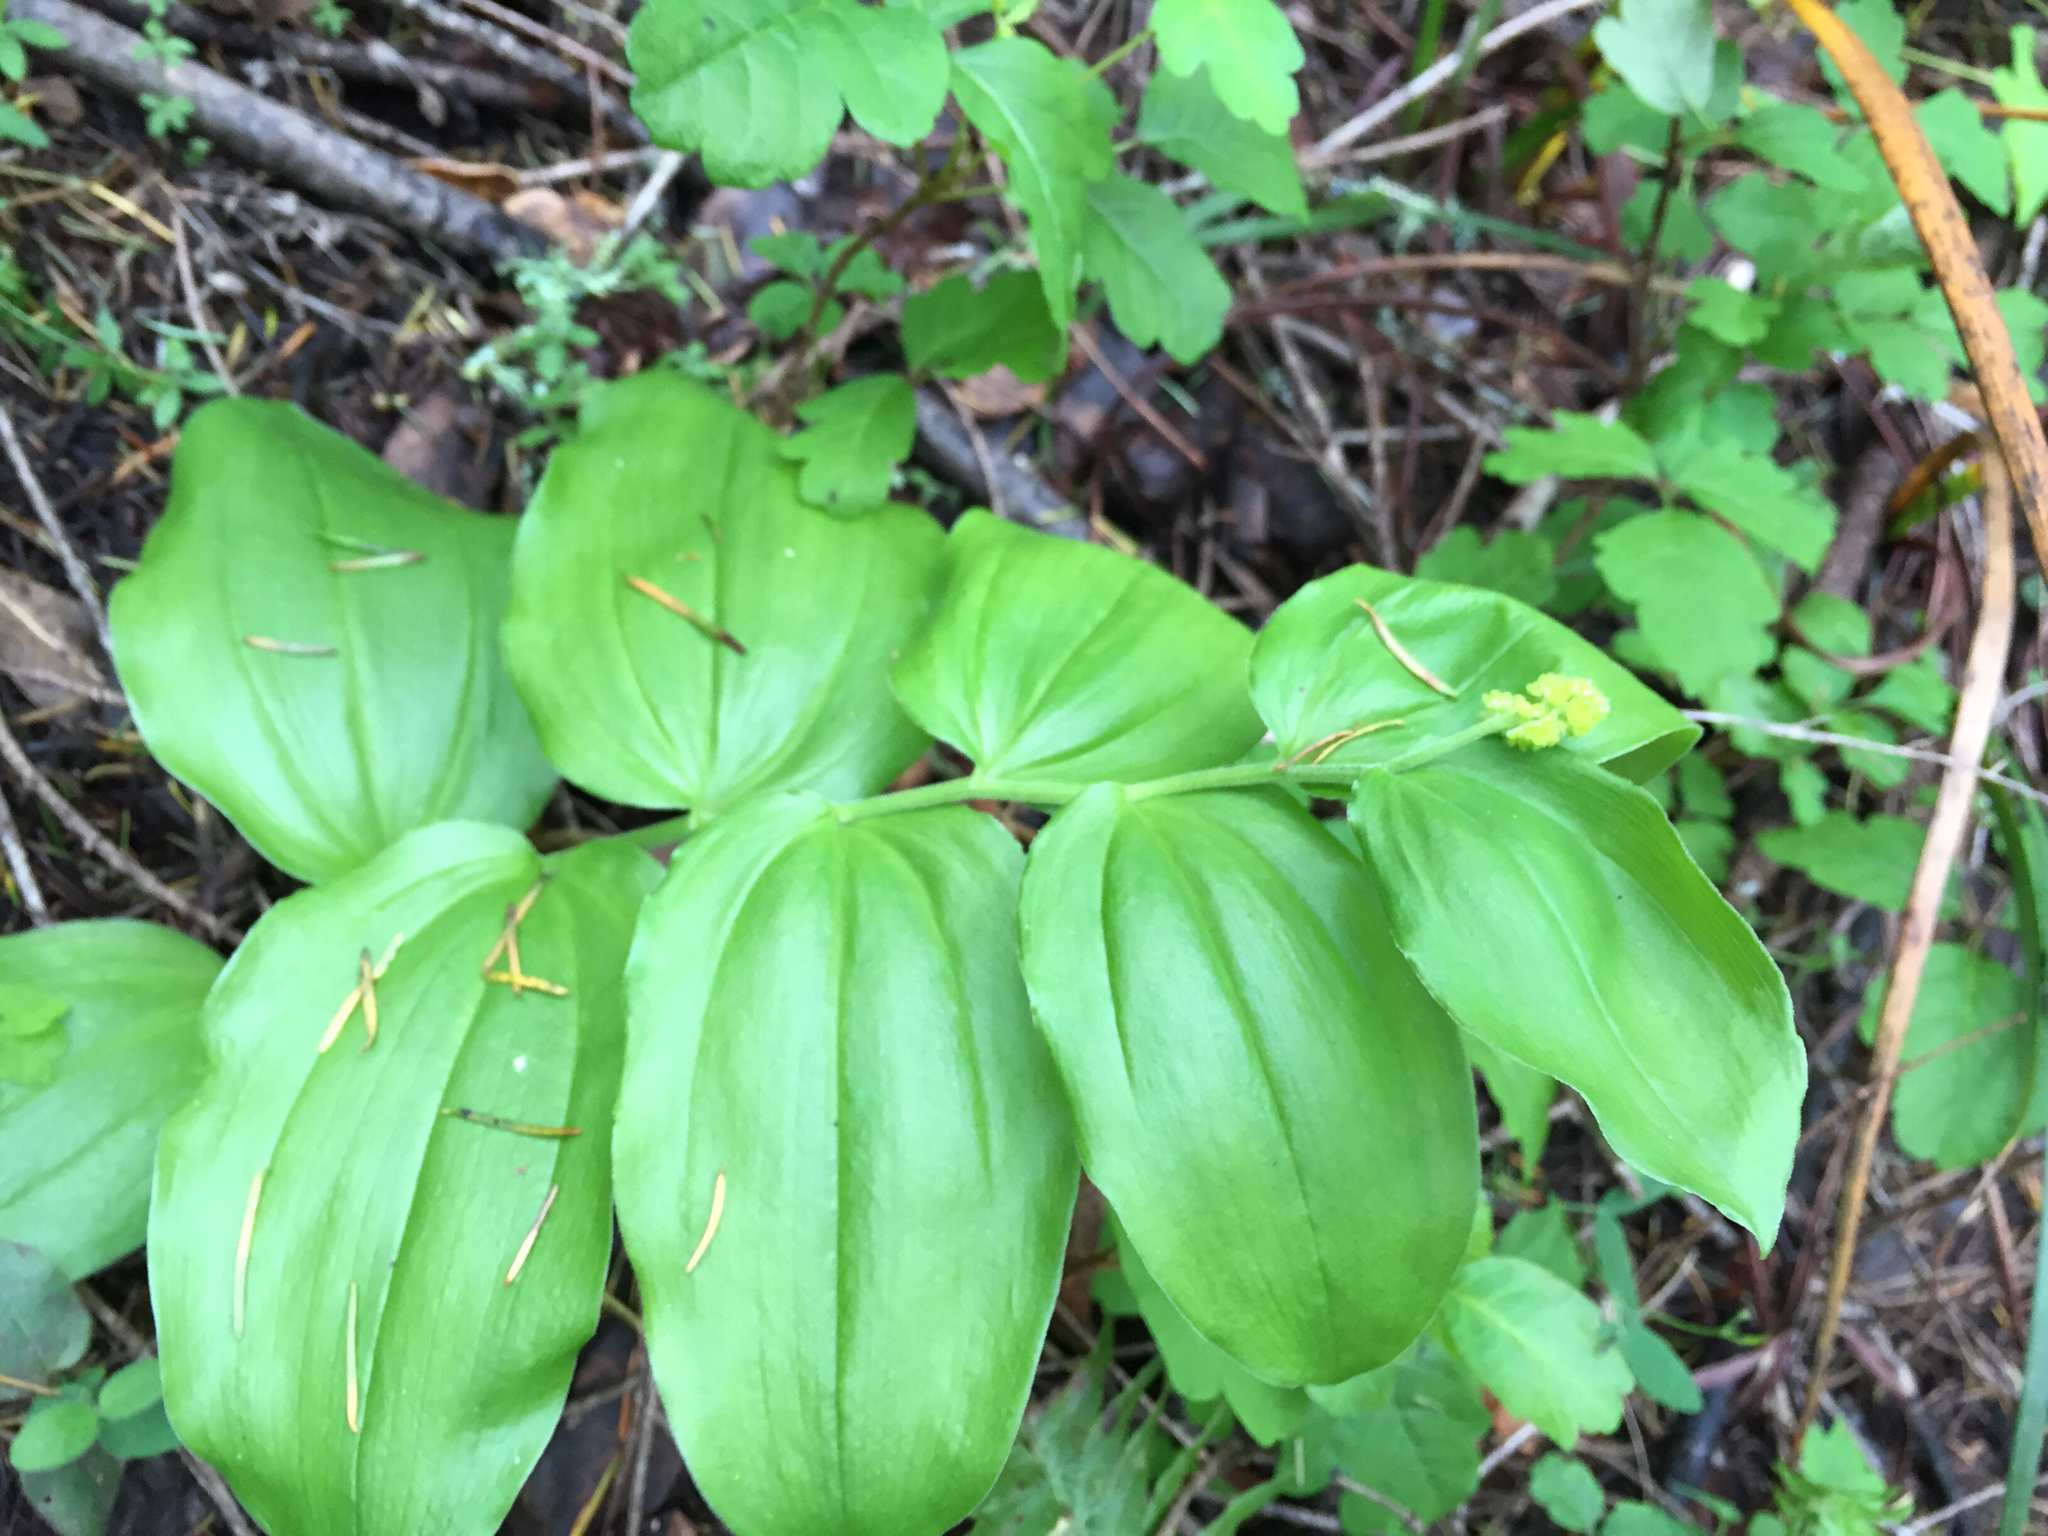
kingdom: Plantae
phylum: Tracheophyta
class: Liliopsida
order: Asparagales
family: Asparagaceae
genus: Maianthemum
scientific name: Maianthemum racemosum
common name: False spikenard
